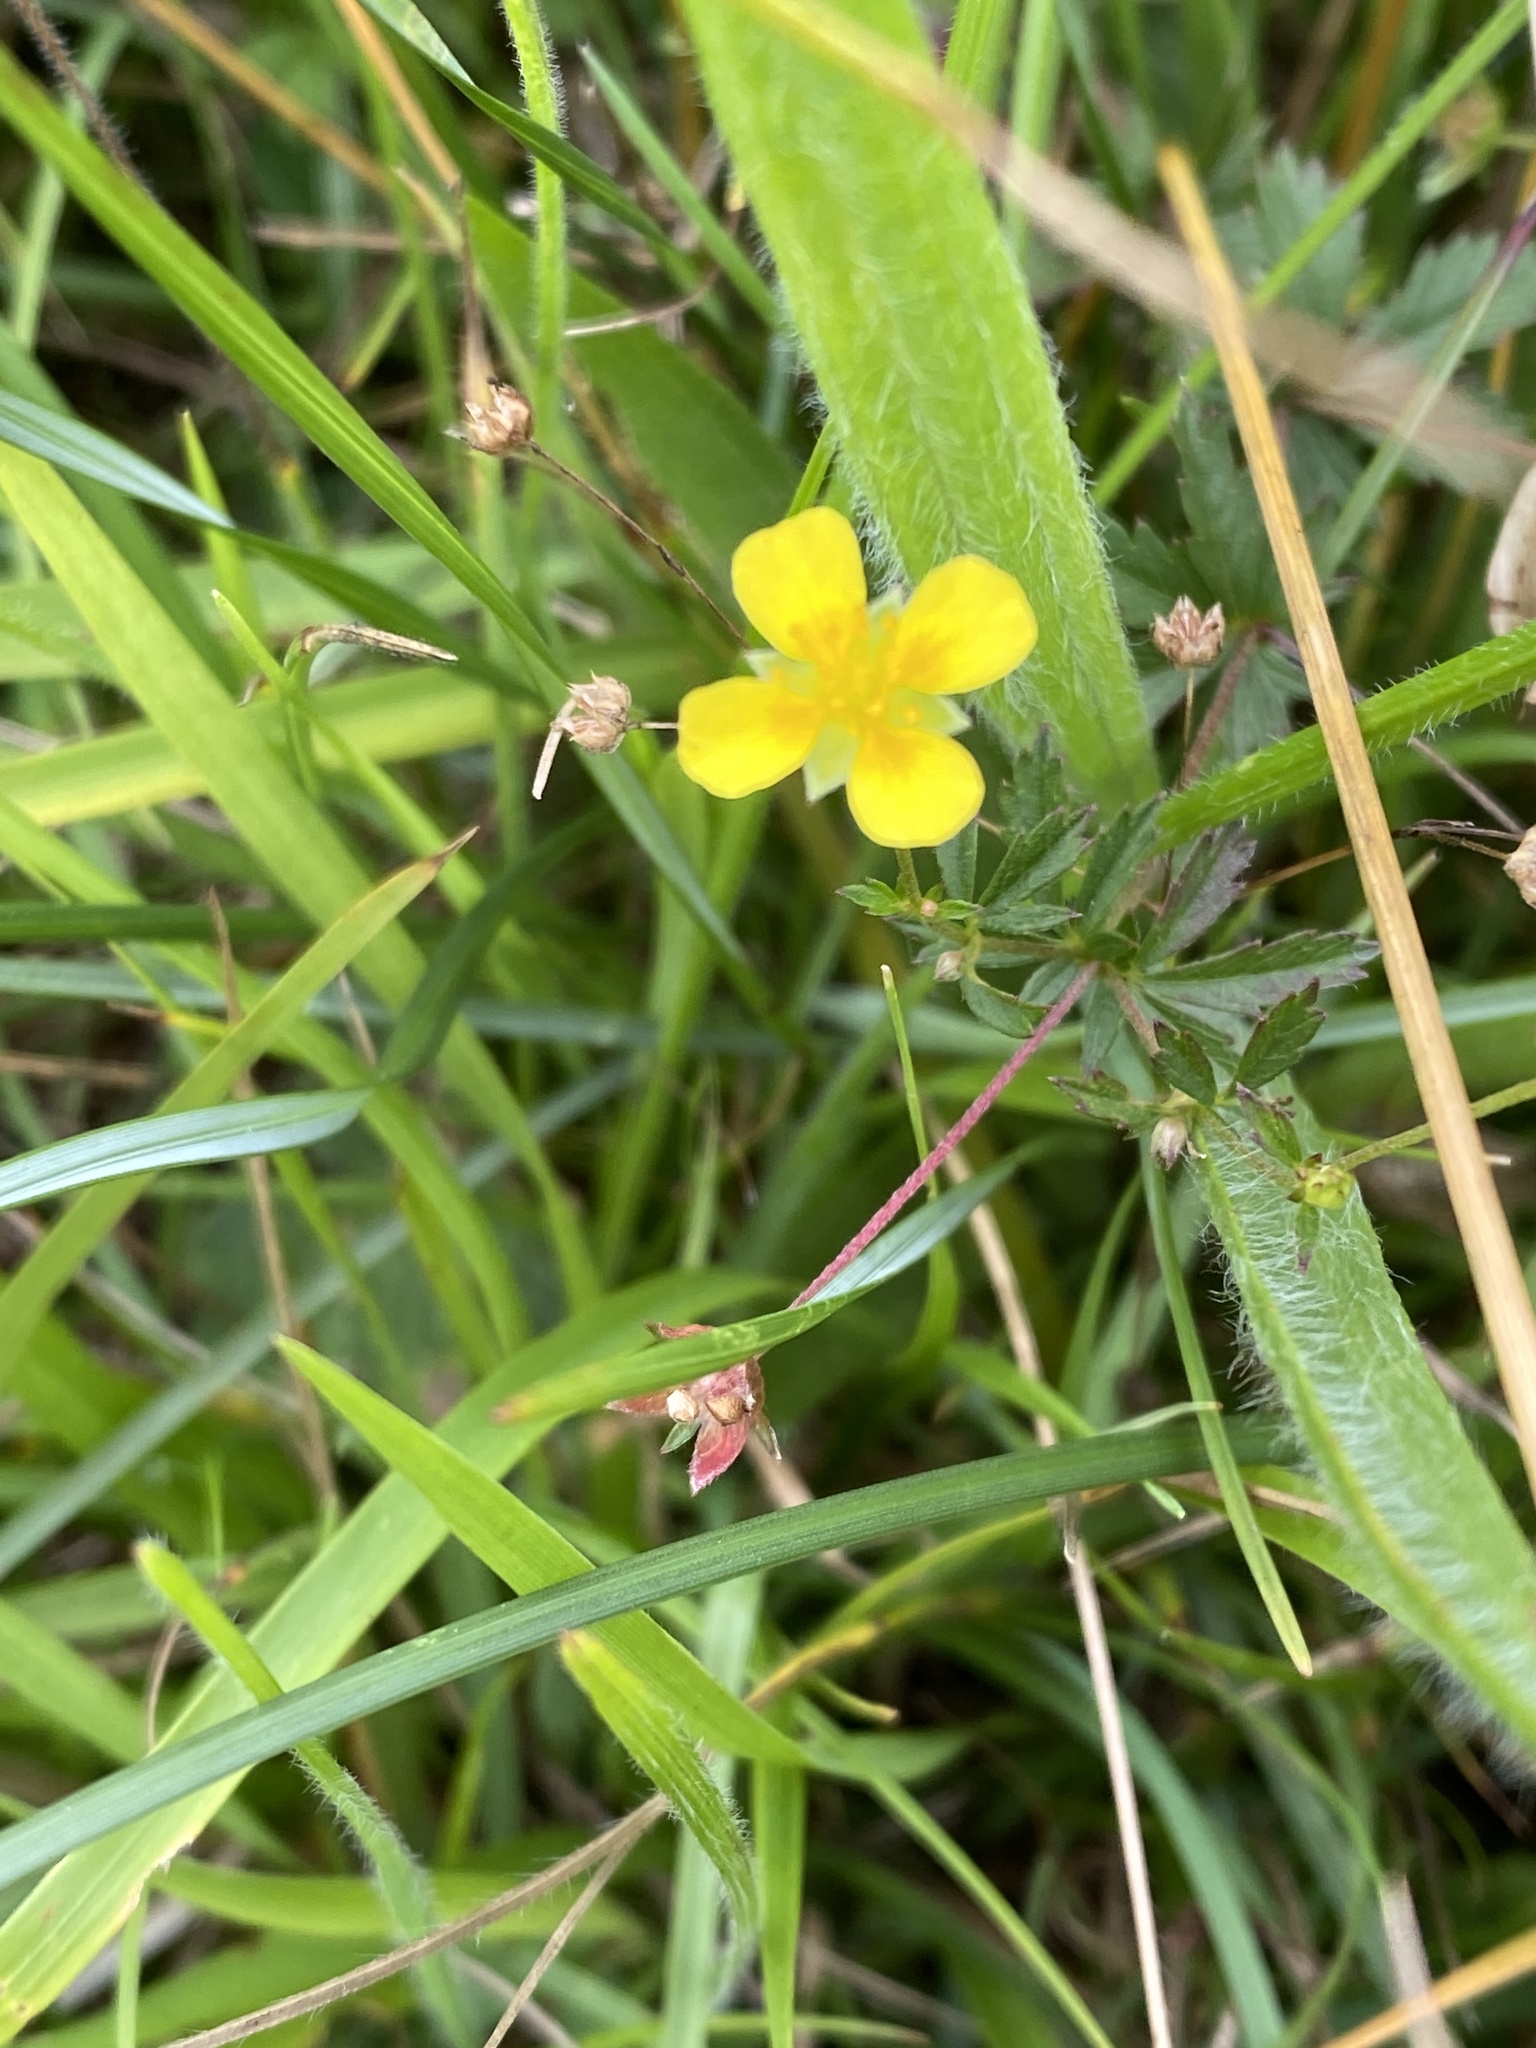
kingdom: Plantae
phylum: Tracheophyta
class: Magnoliopsida
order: Rosales
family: Rosaceae
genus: Potentilla
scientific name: Potentilla erecta
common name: Tormentil
